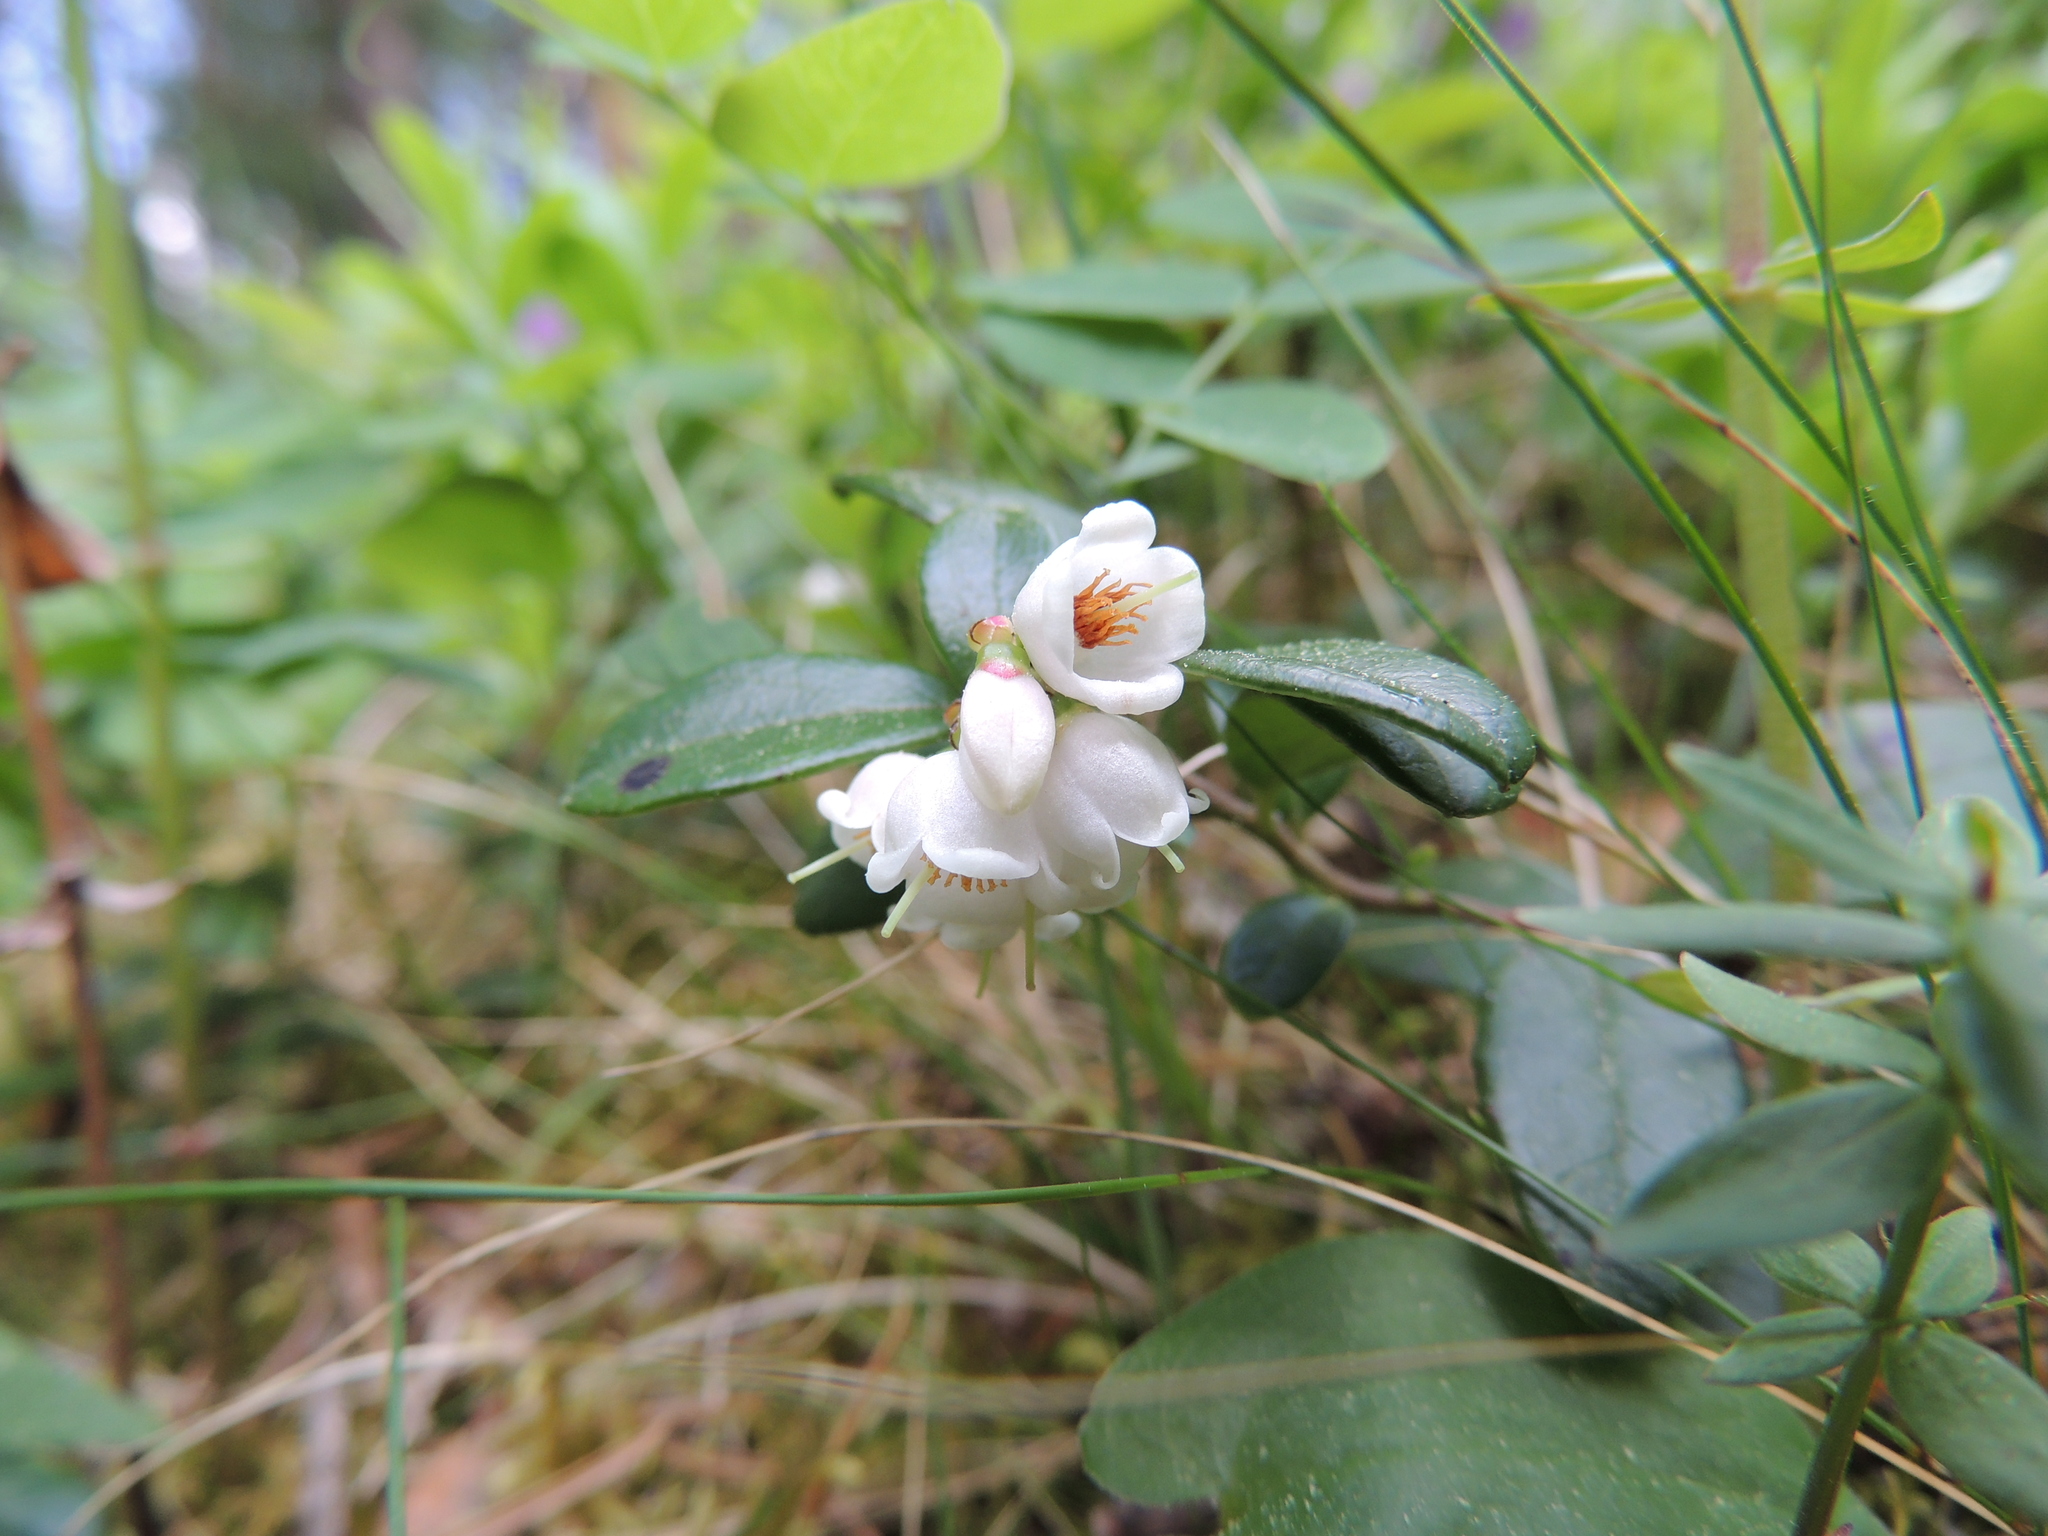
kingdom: Plantae
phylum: Tracheophyta
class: Magnoliopsida
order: Ericales
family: Ericaceae
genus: Vaccinium
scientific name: Vaccinium vitis-idaea
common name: Cowberry
